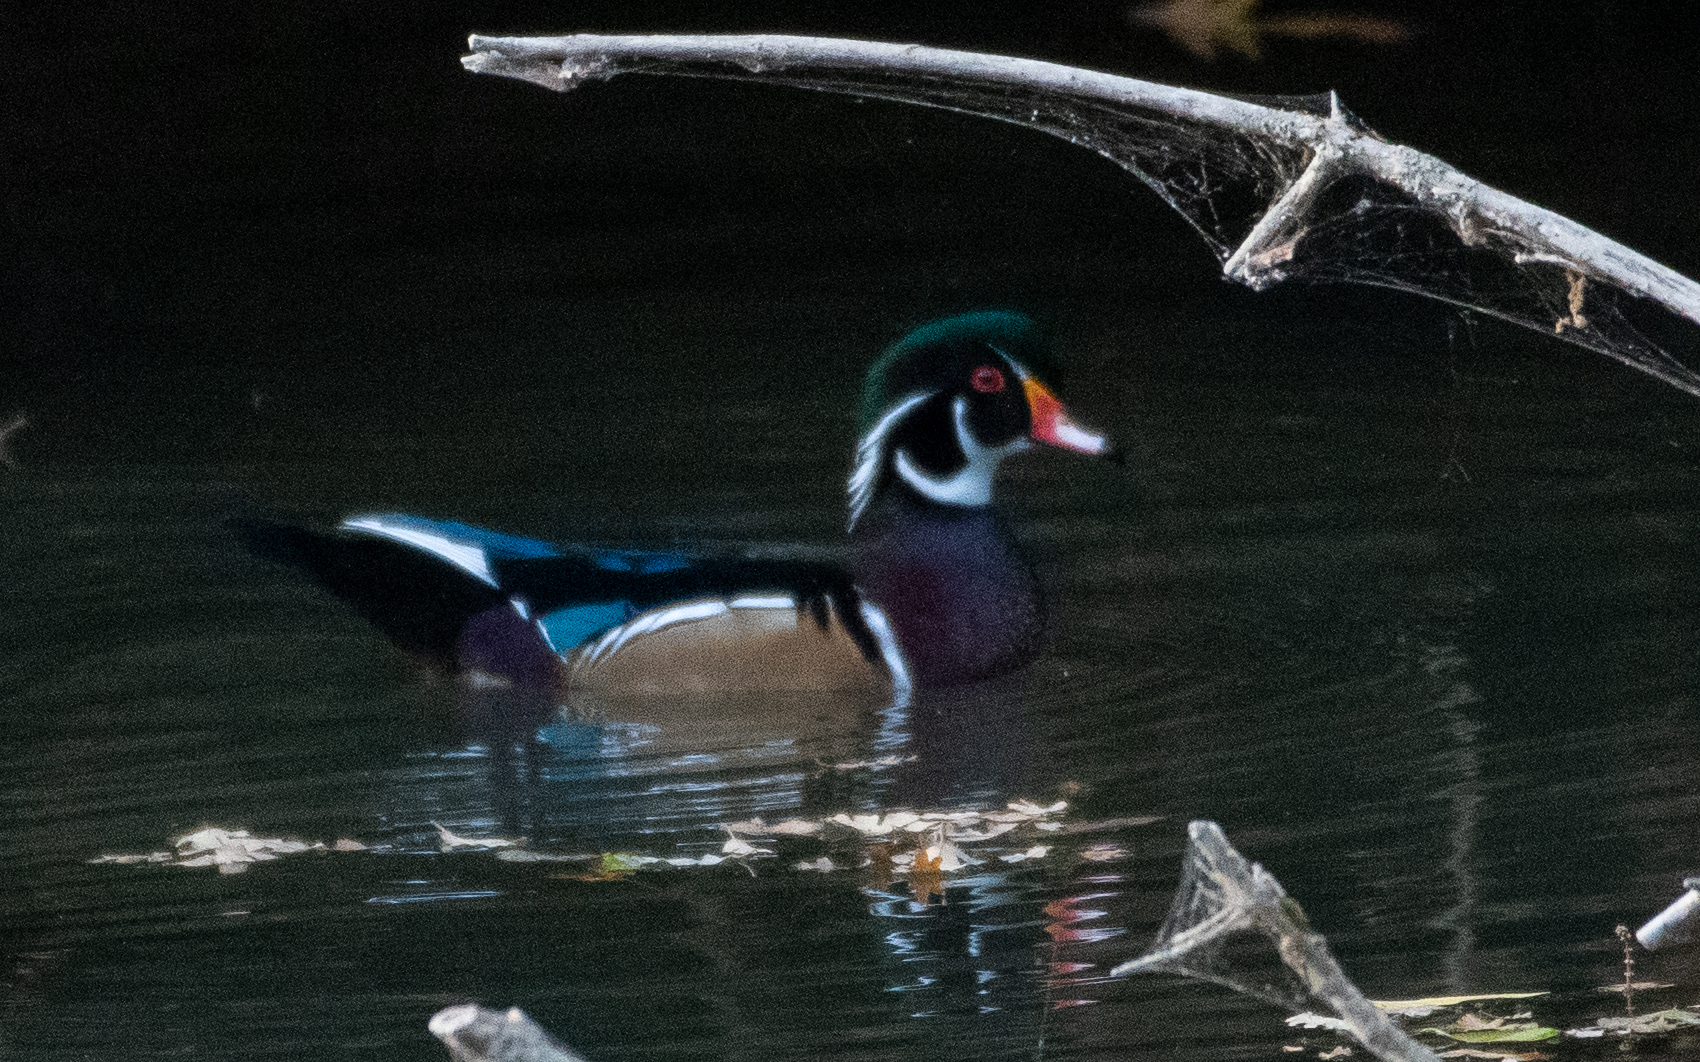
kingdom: Animalia
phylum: Chordata
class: Aves
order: Anseriformes
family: Anatidae
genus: Aix
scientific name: Aix sponsa
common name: Wood duck
